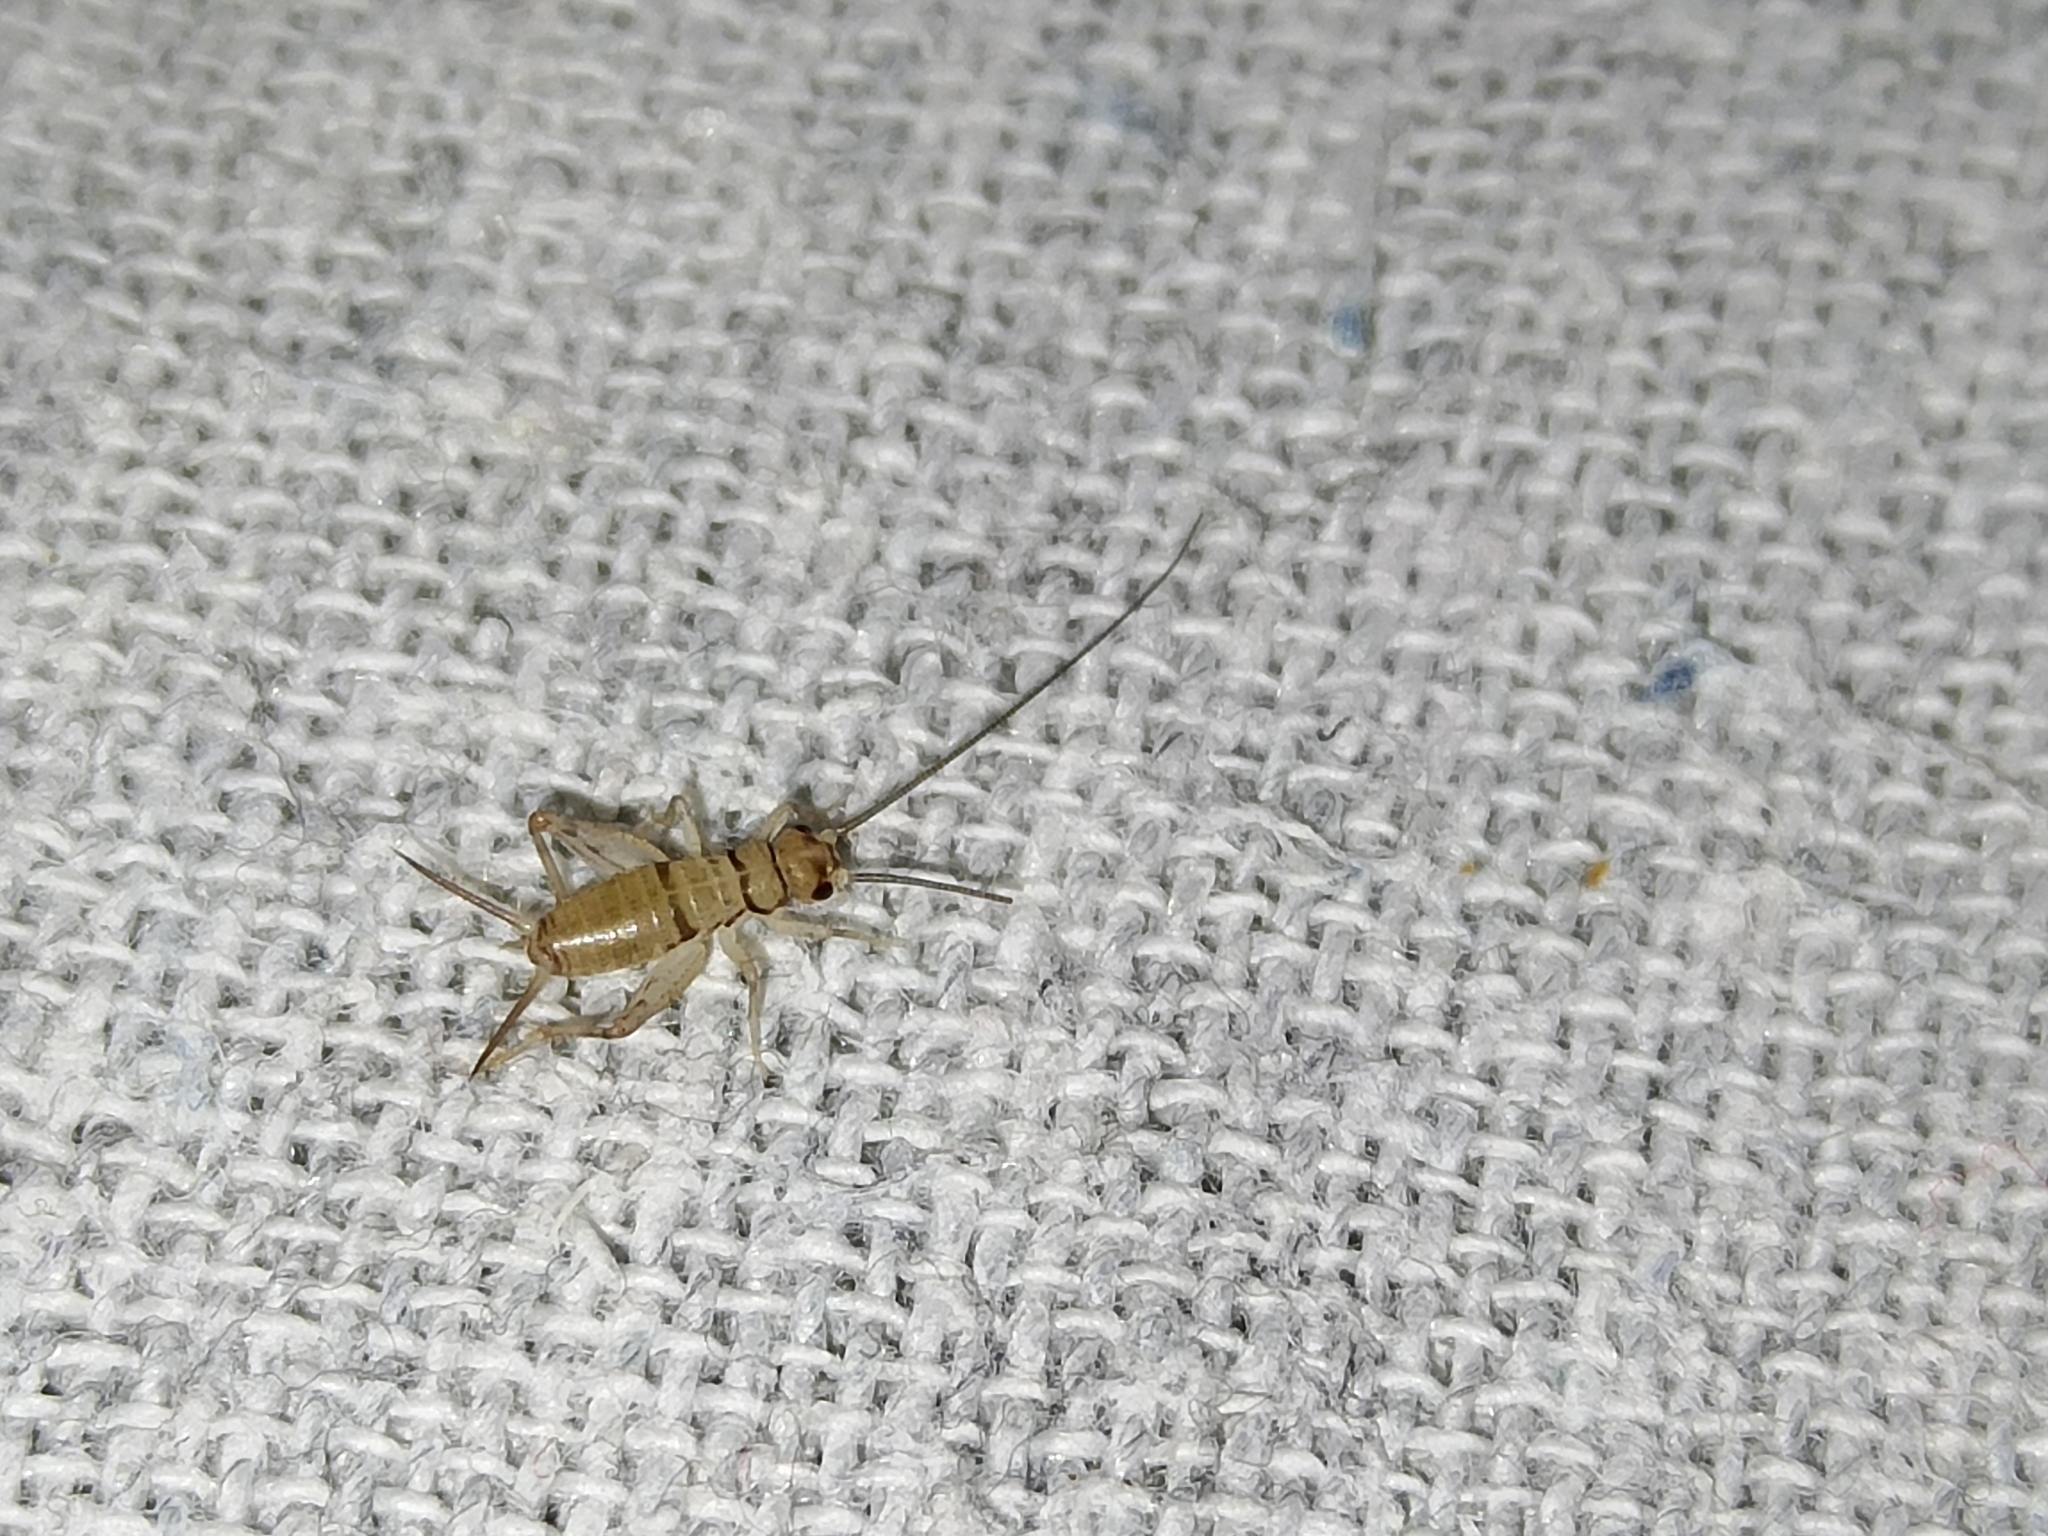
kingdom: Animalia
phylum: Arthropoda
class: Insecta
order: Orthoptera
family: Gryllidae
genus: Gryllodes
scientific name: Gryllodes sigillatus
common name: Tropical house cricket
